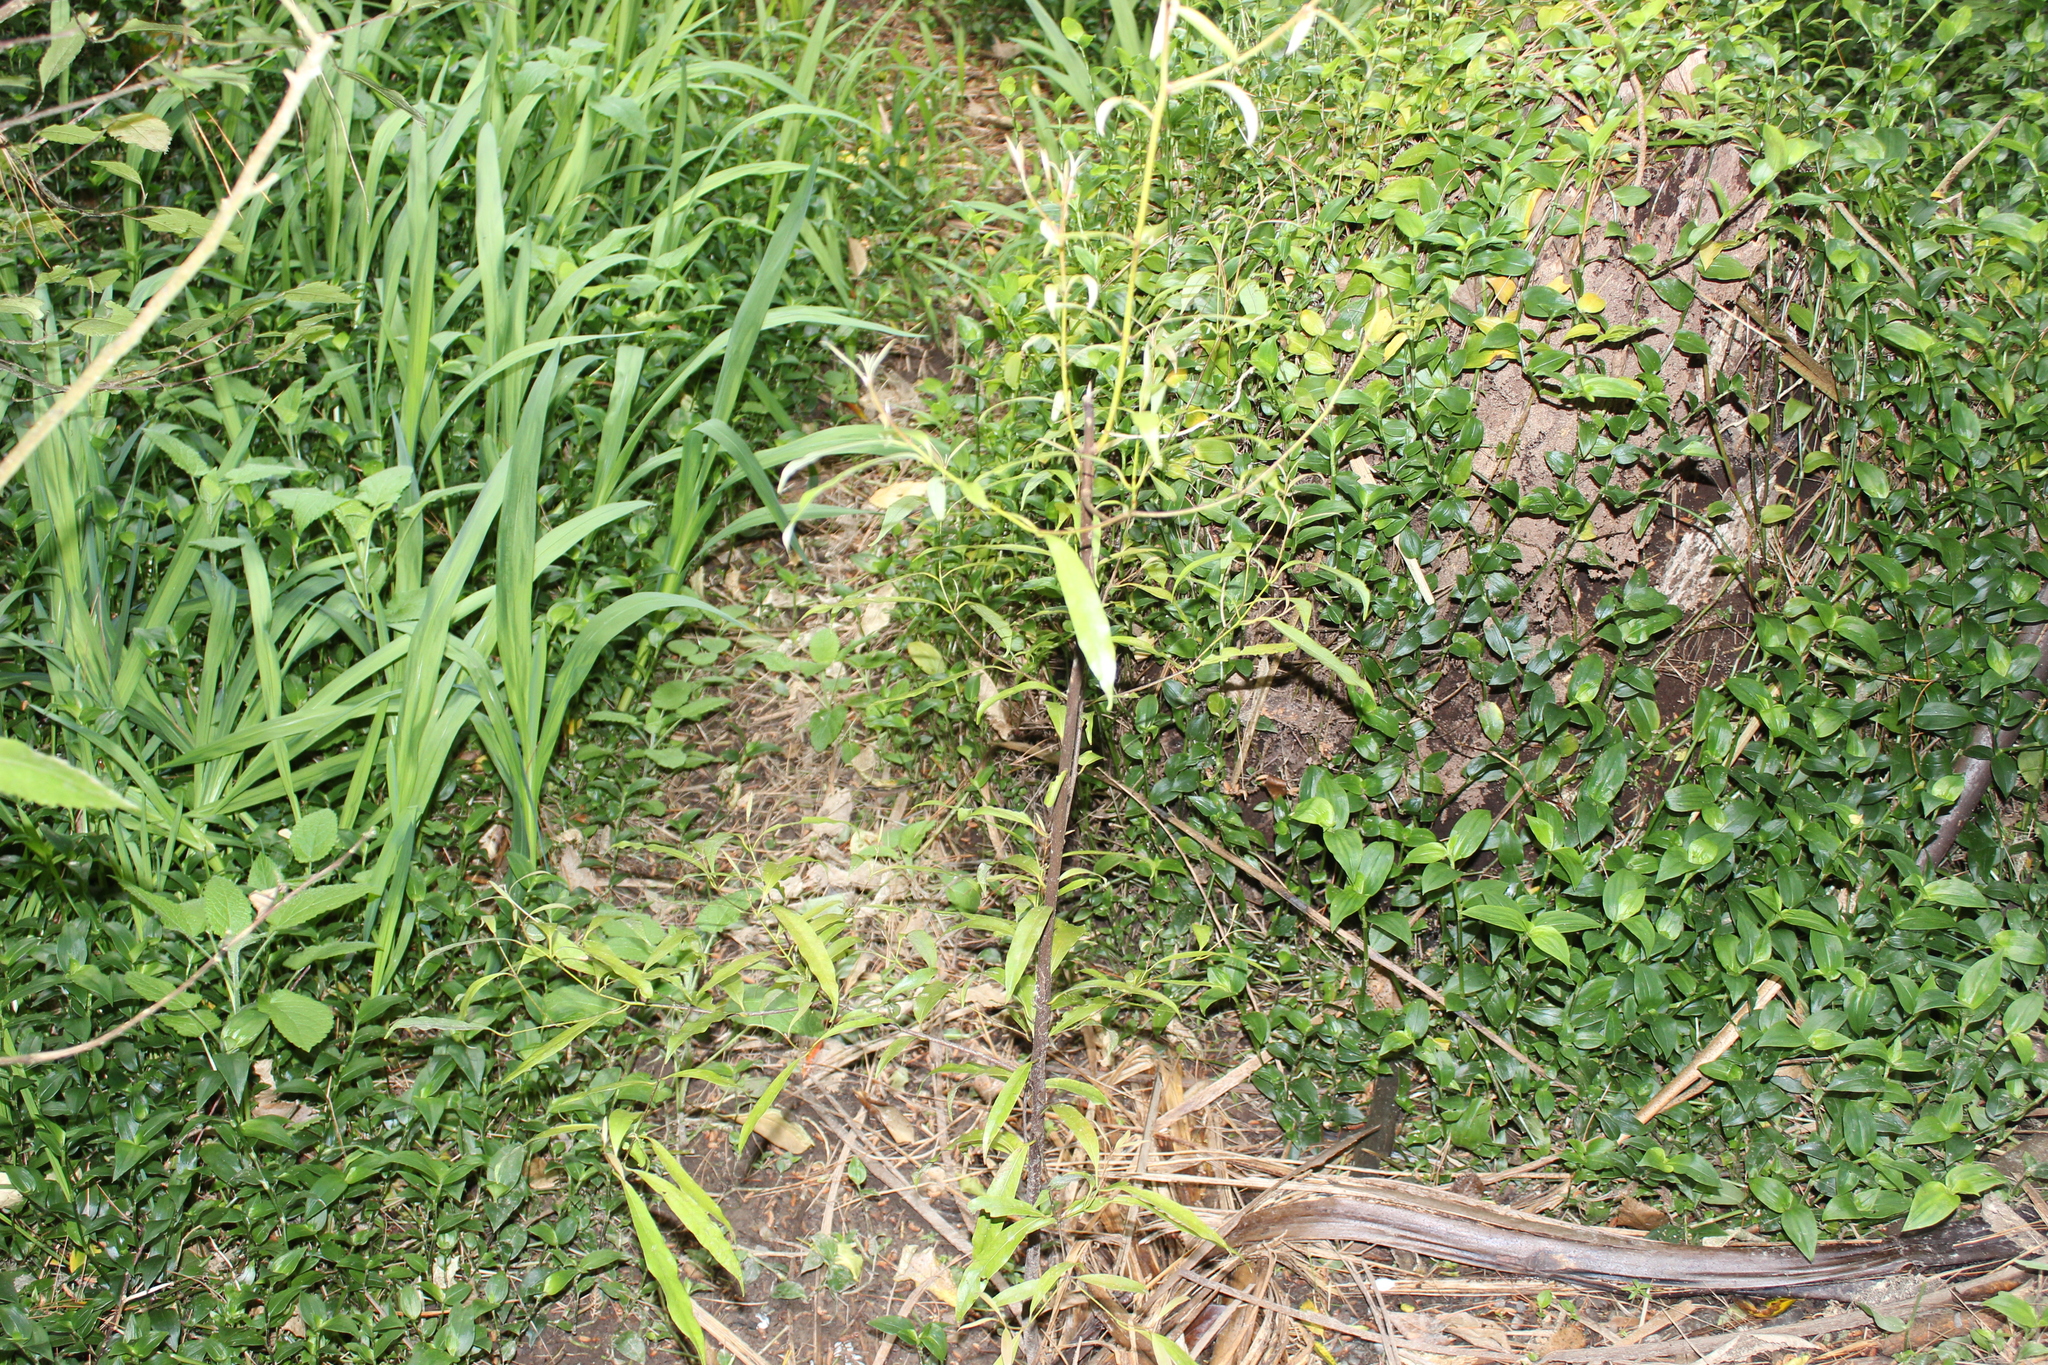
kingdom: Plantae
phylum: Tracheophyta
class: Magnoliopsida
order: Laurales
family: Lauraceae
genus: Beilschmiedia
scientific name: Beilschmiedia tawa
